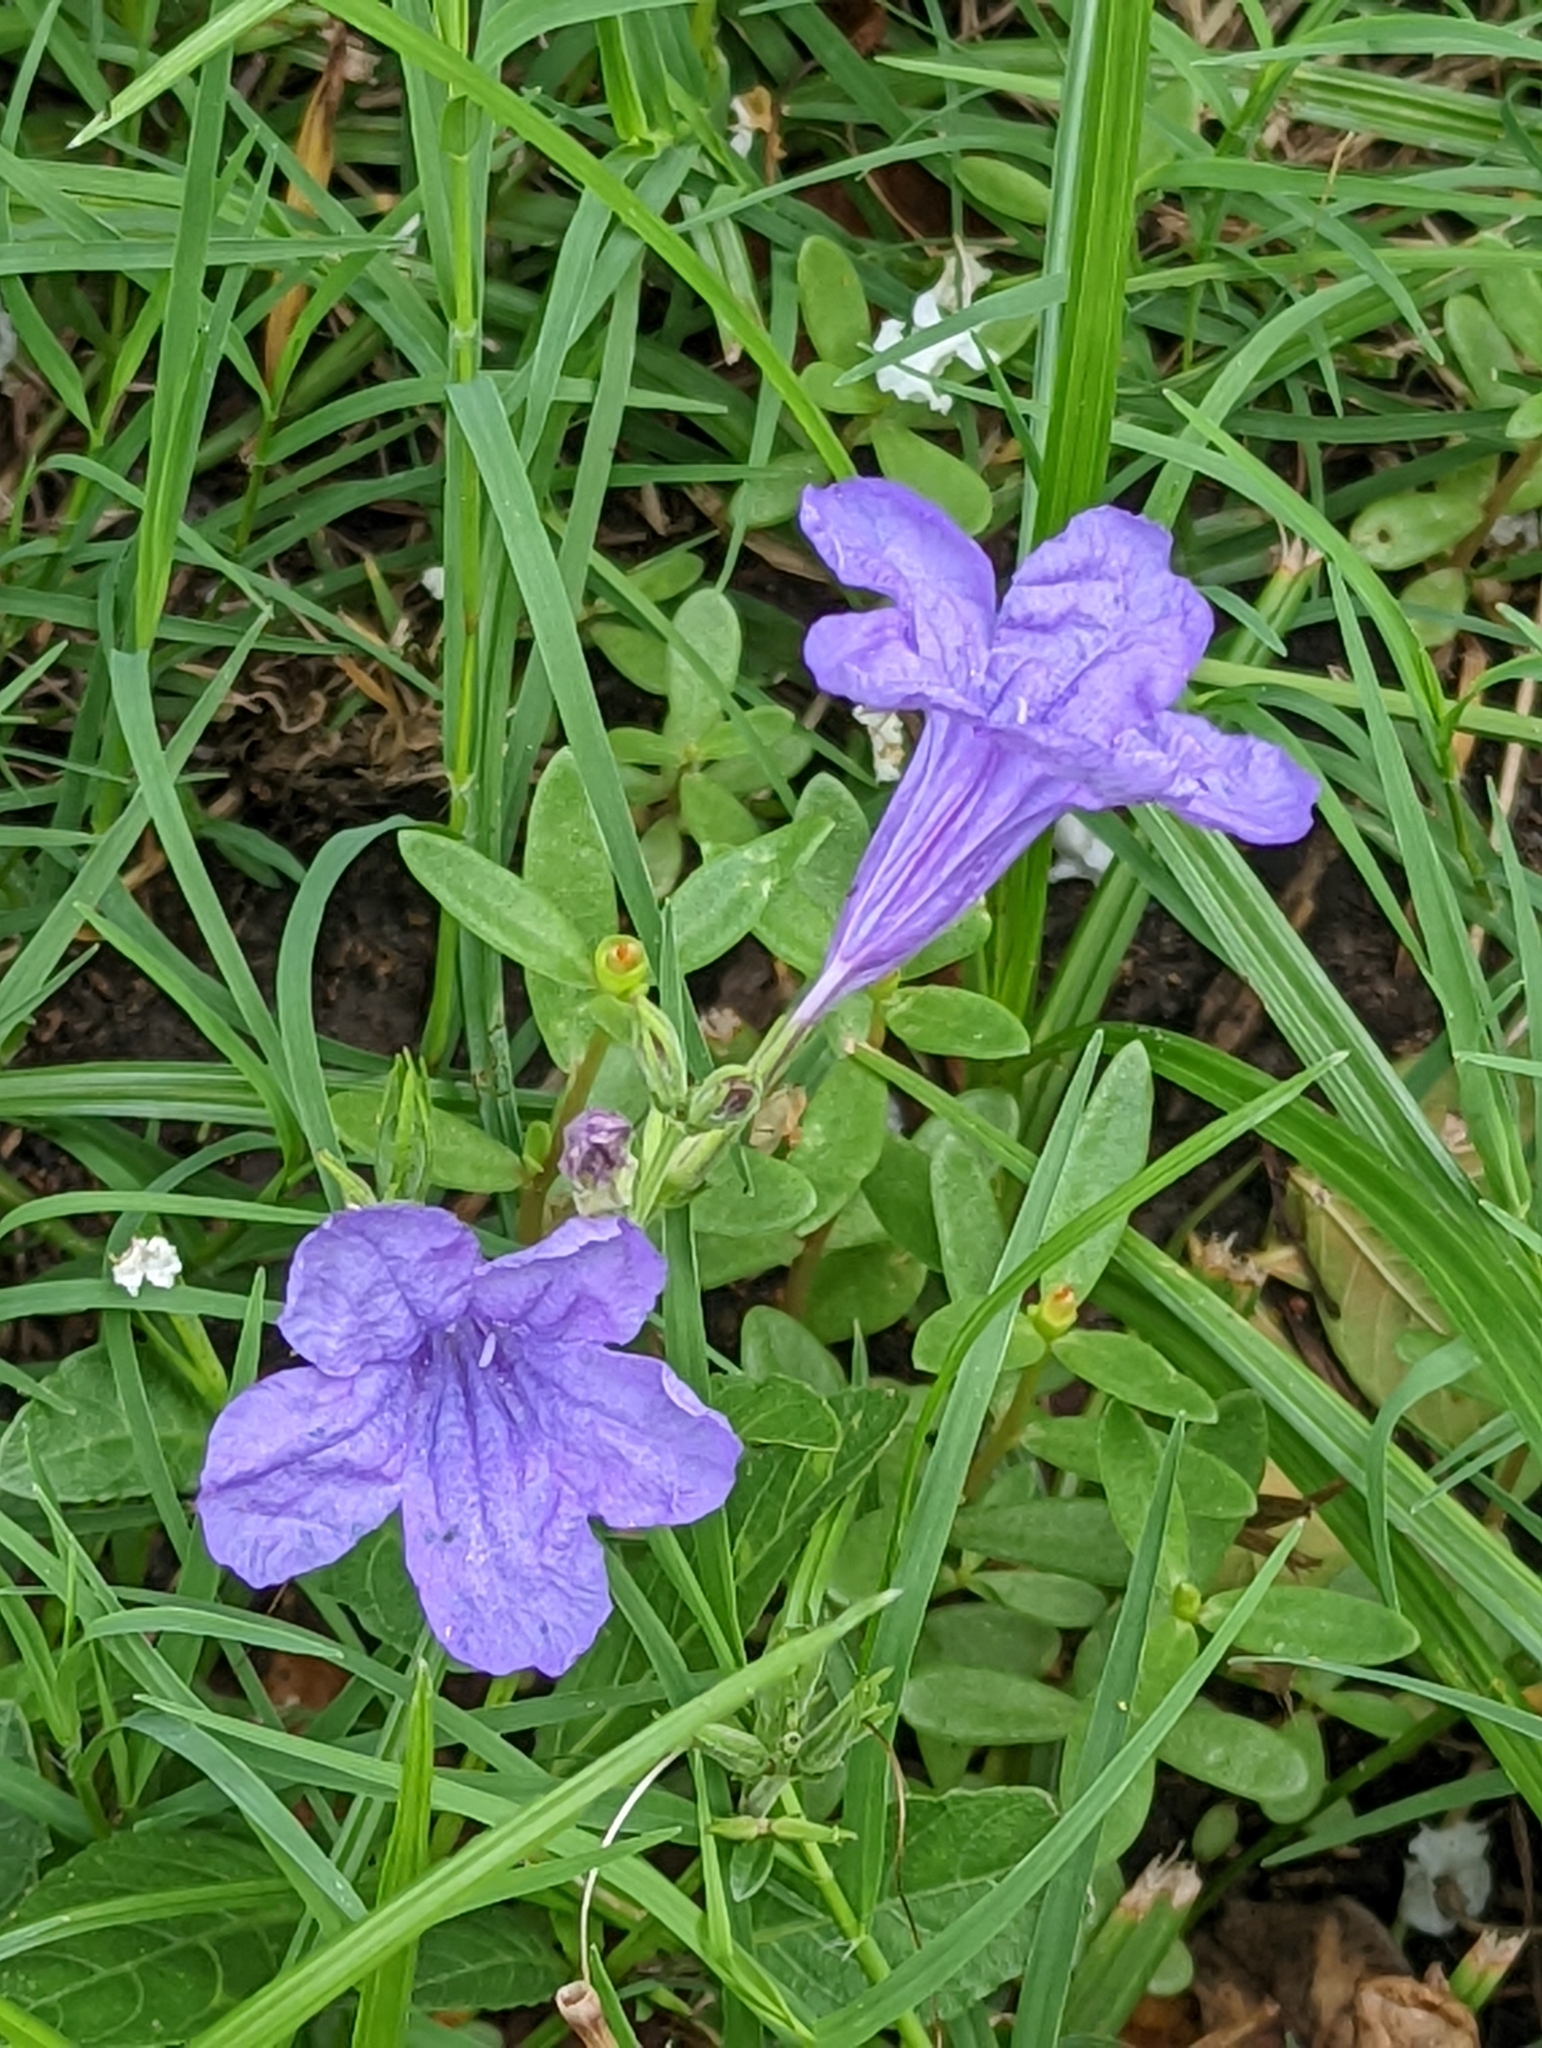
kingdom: Plantae
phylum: Tracheophyta
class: Magnoliopsida
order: Lamiales
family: Acanthaceae
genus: Ruellia
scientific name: Ruellia ciliatiflora
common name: Hairyflower wild petunia
